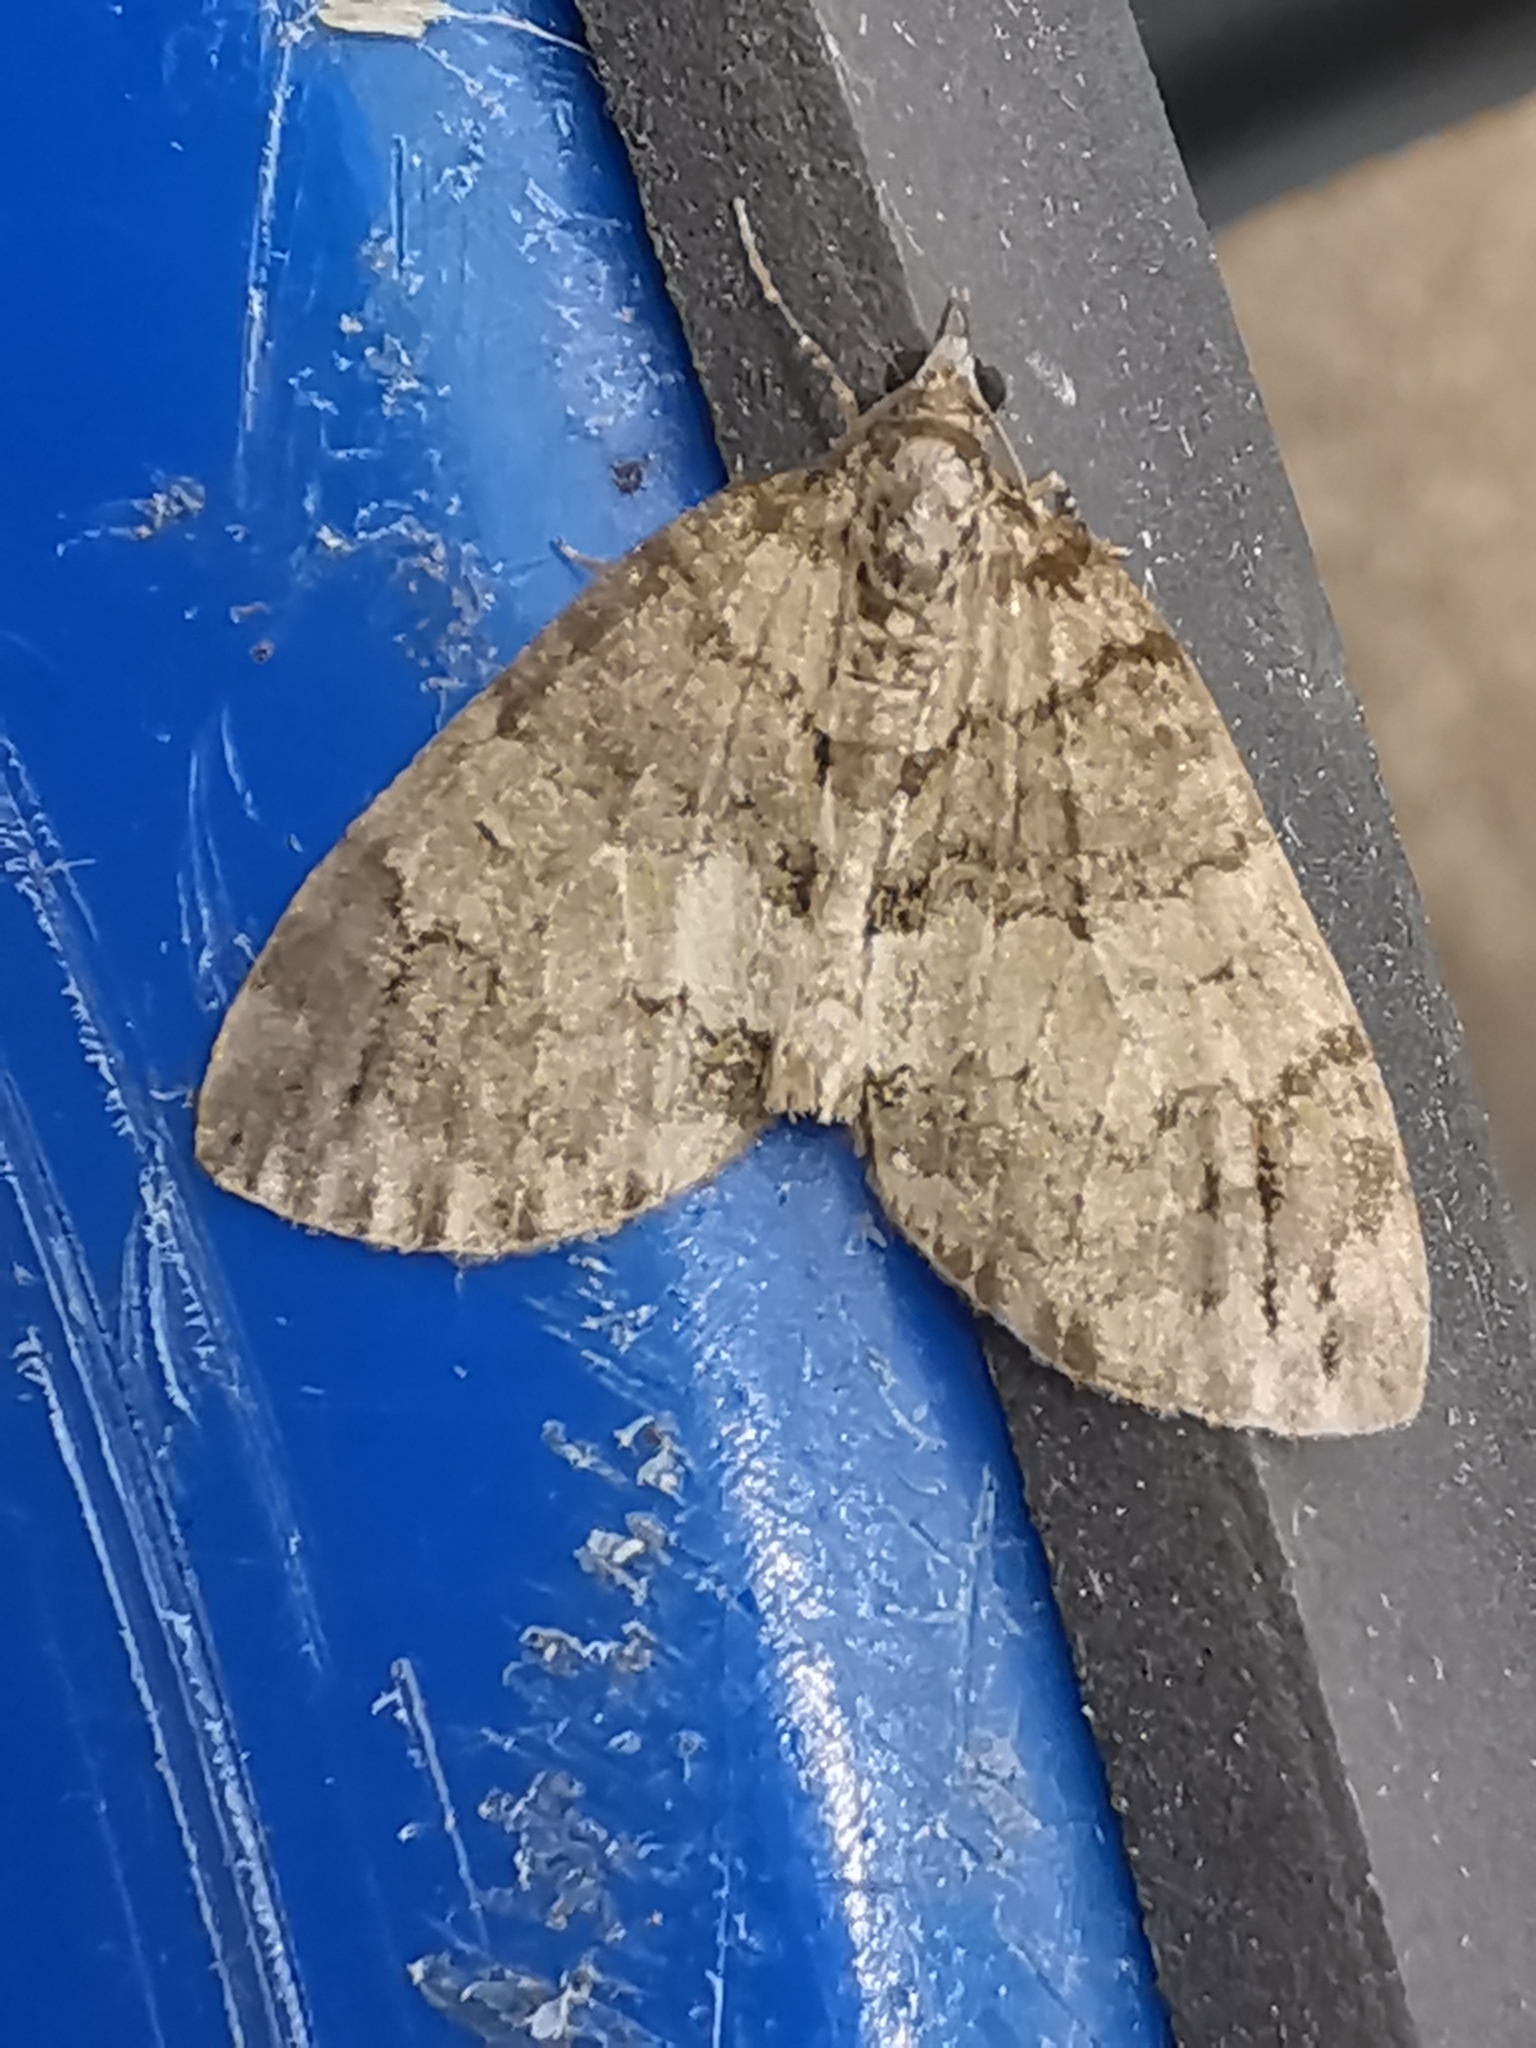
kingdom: Animalia
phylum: Arthropoda
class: Insecta
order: Lepidoptera
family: Geometridae
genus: Hydriomena
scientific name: Hydriomena impluviata
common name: May highflyer
